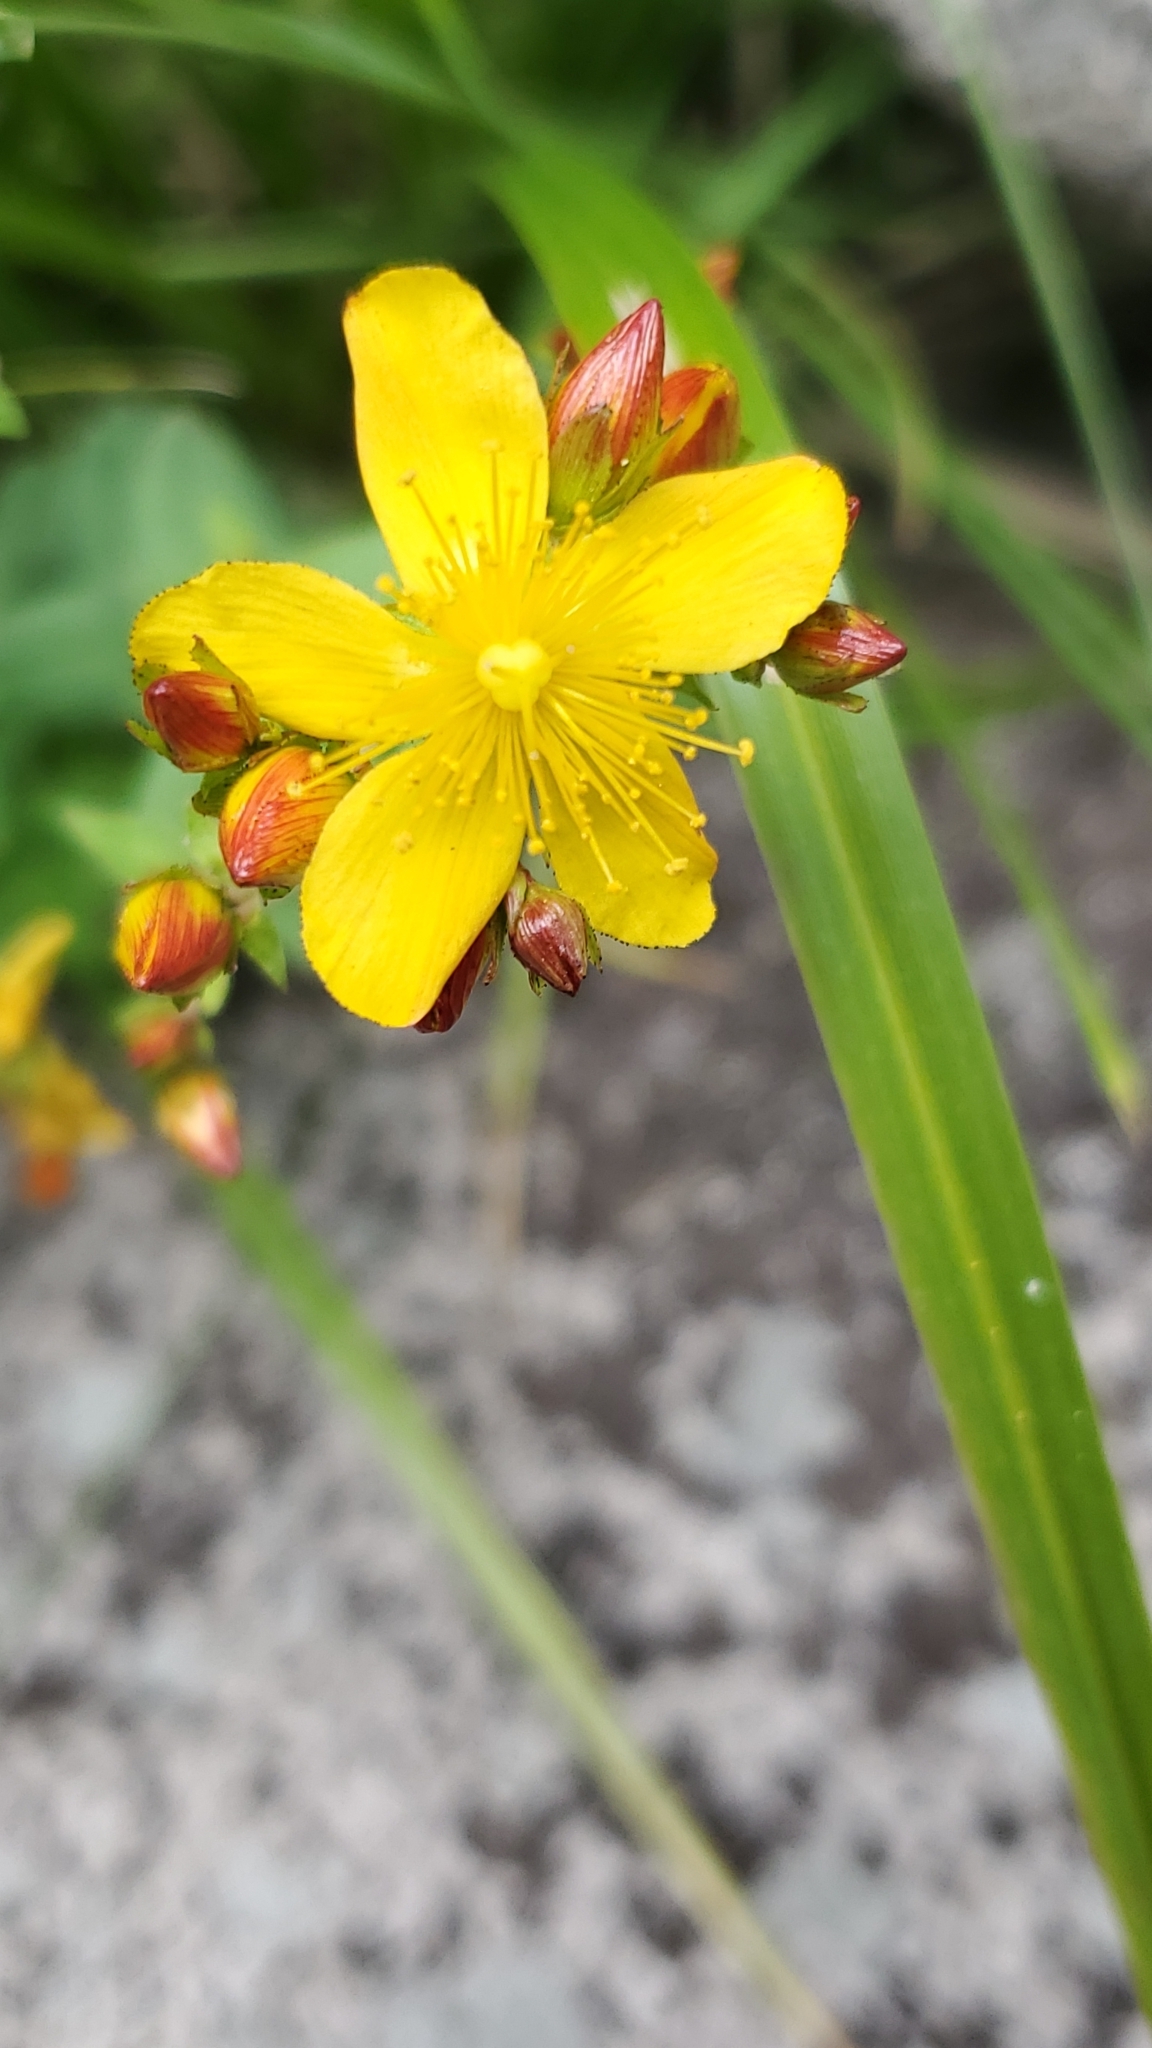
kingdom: Plantae
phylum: Tracheophyta
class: Magnoliopsida
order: Malpighiales
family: Hypericaceae
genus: Hypericum
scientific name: Hypericum scouleri
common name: Scouler's st. john's-wort
